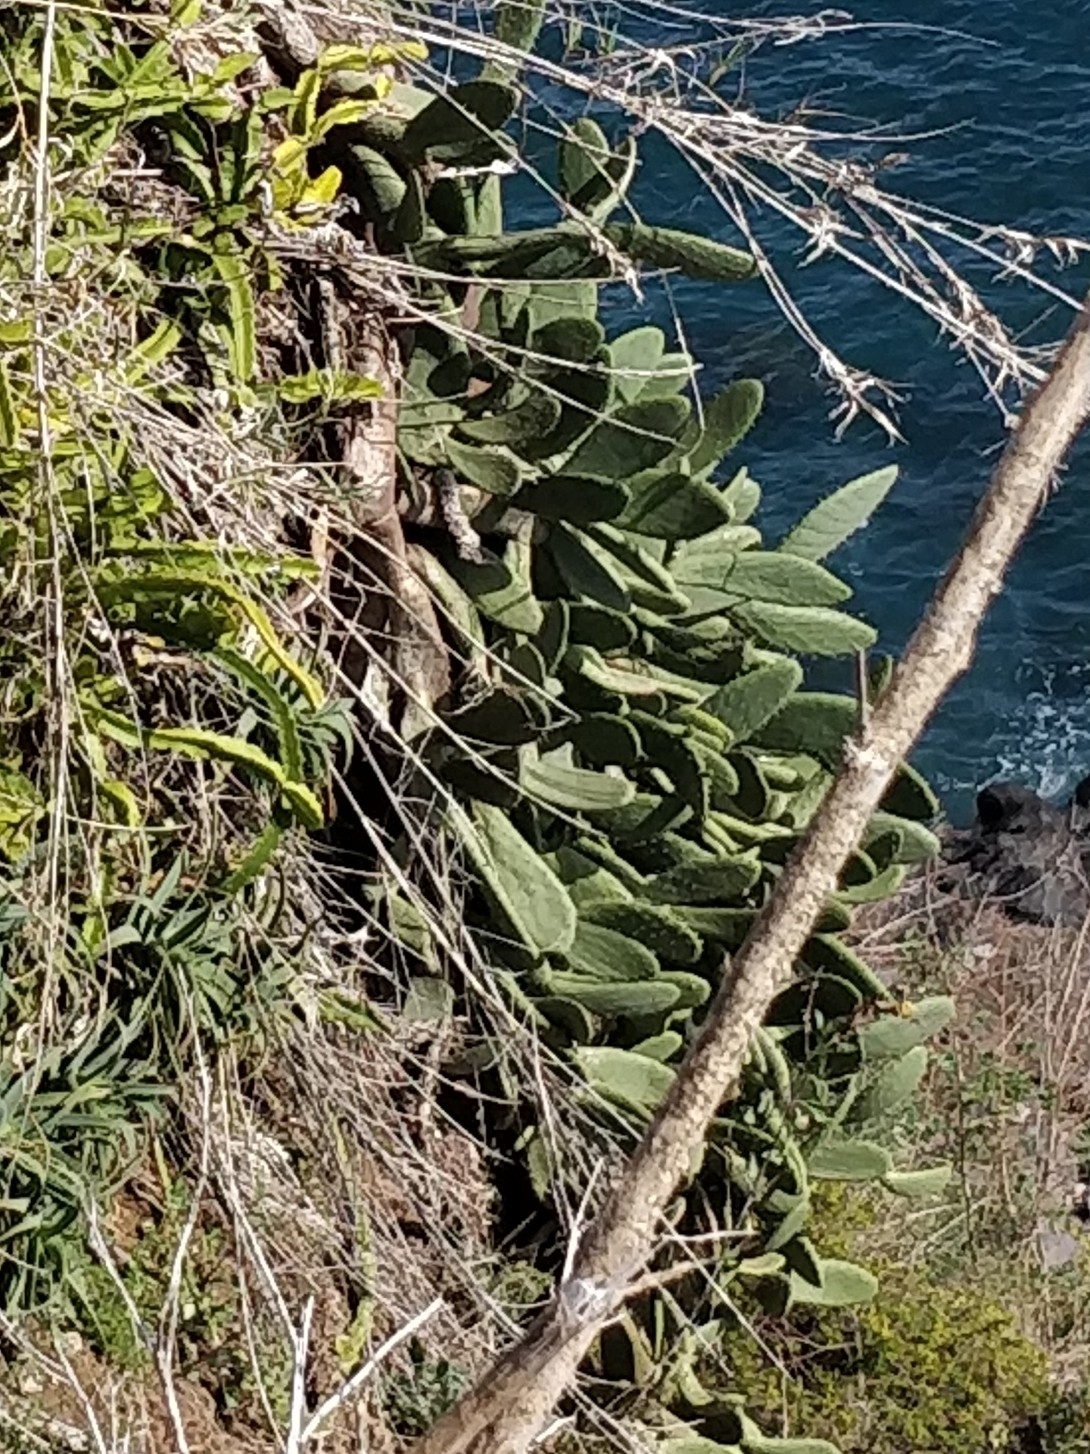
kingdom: Plantae
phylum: Tracheophyta
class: Magnoliopsida
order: Caryophyllales
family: Cactaceae
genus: Opuntia
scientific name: Opuntia ficus-indica
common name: Barbary fig
